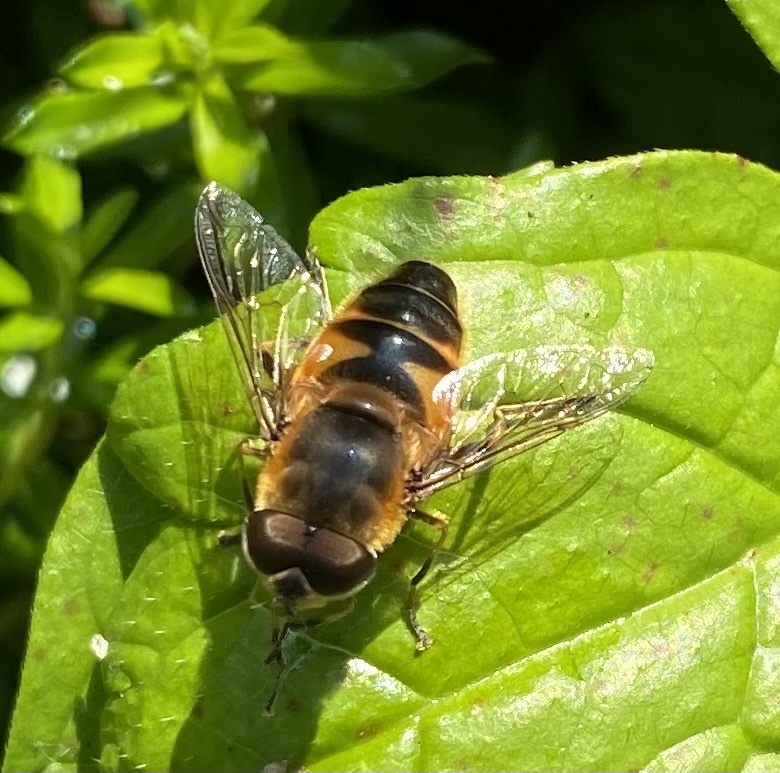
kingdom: Animalia
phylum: Arthropoda
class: Insecta
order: Diptera
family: Syrphidae
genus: Eristalis
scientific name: Eristalis pertinax
